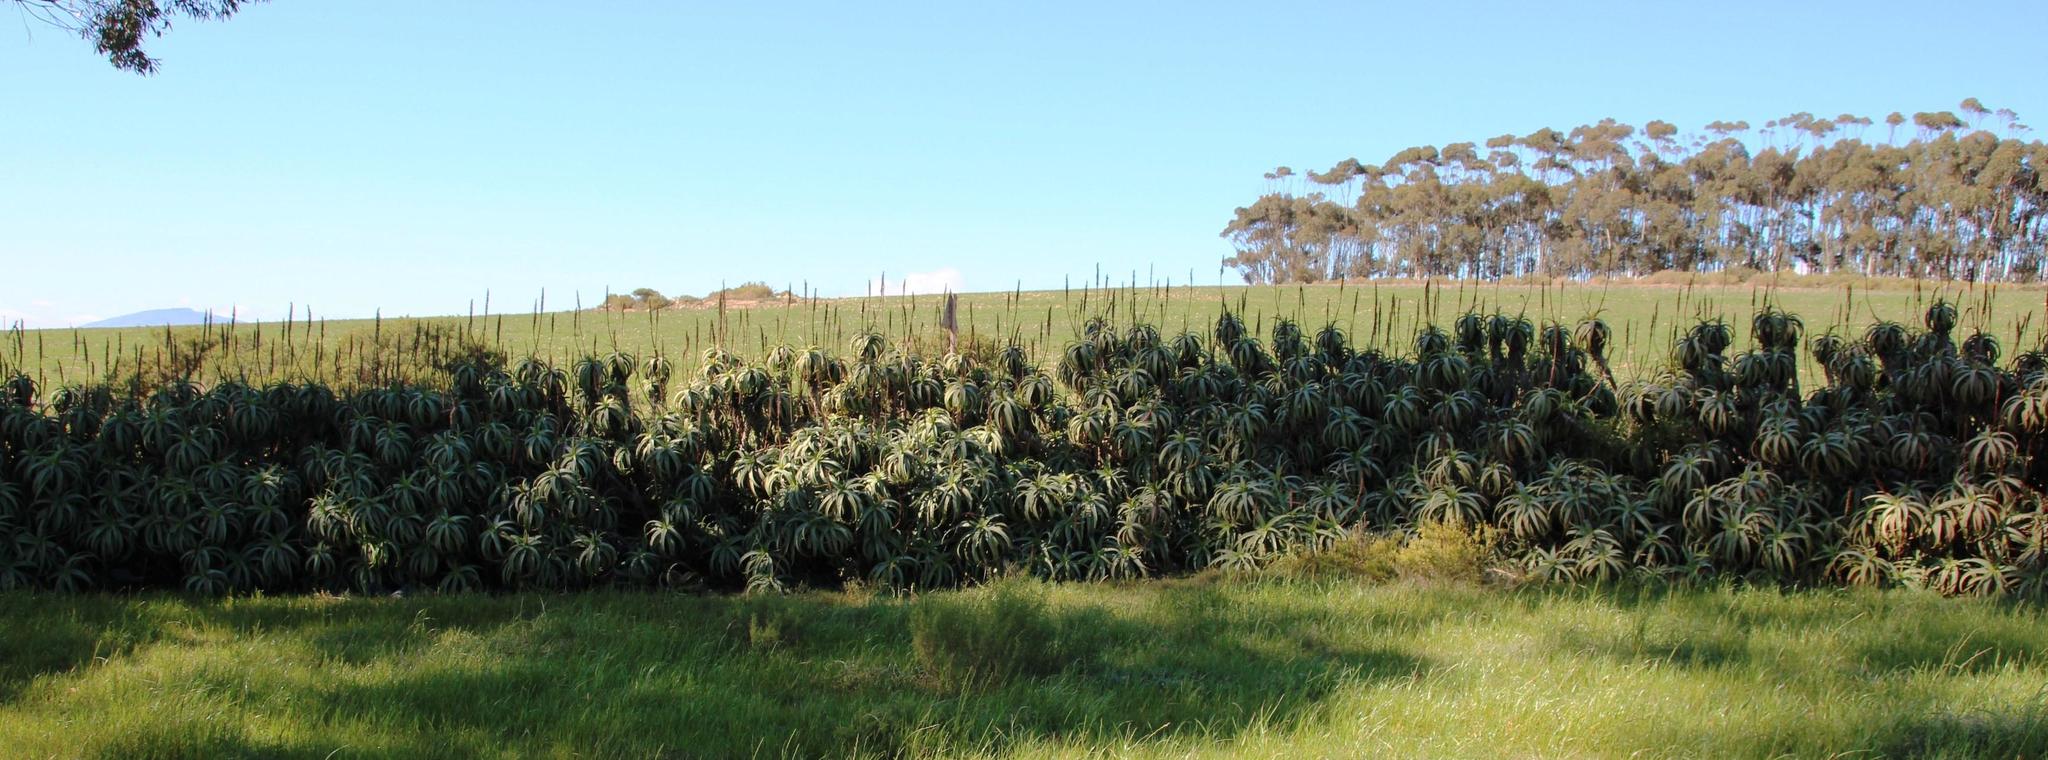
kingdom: Plantae
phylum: Tracheophyta
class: Liliopsida
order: Asparagales
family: Asphodelaceae
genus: Aloe
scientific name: Aloe arborescens
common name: Candelabra aloe
